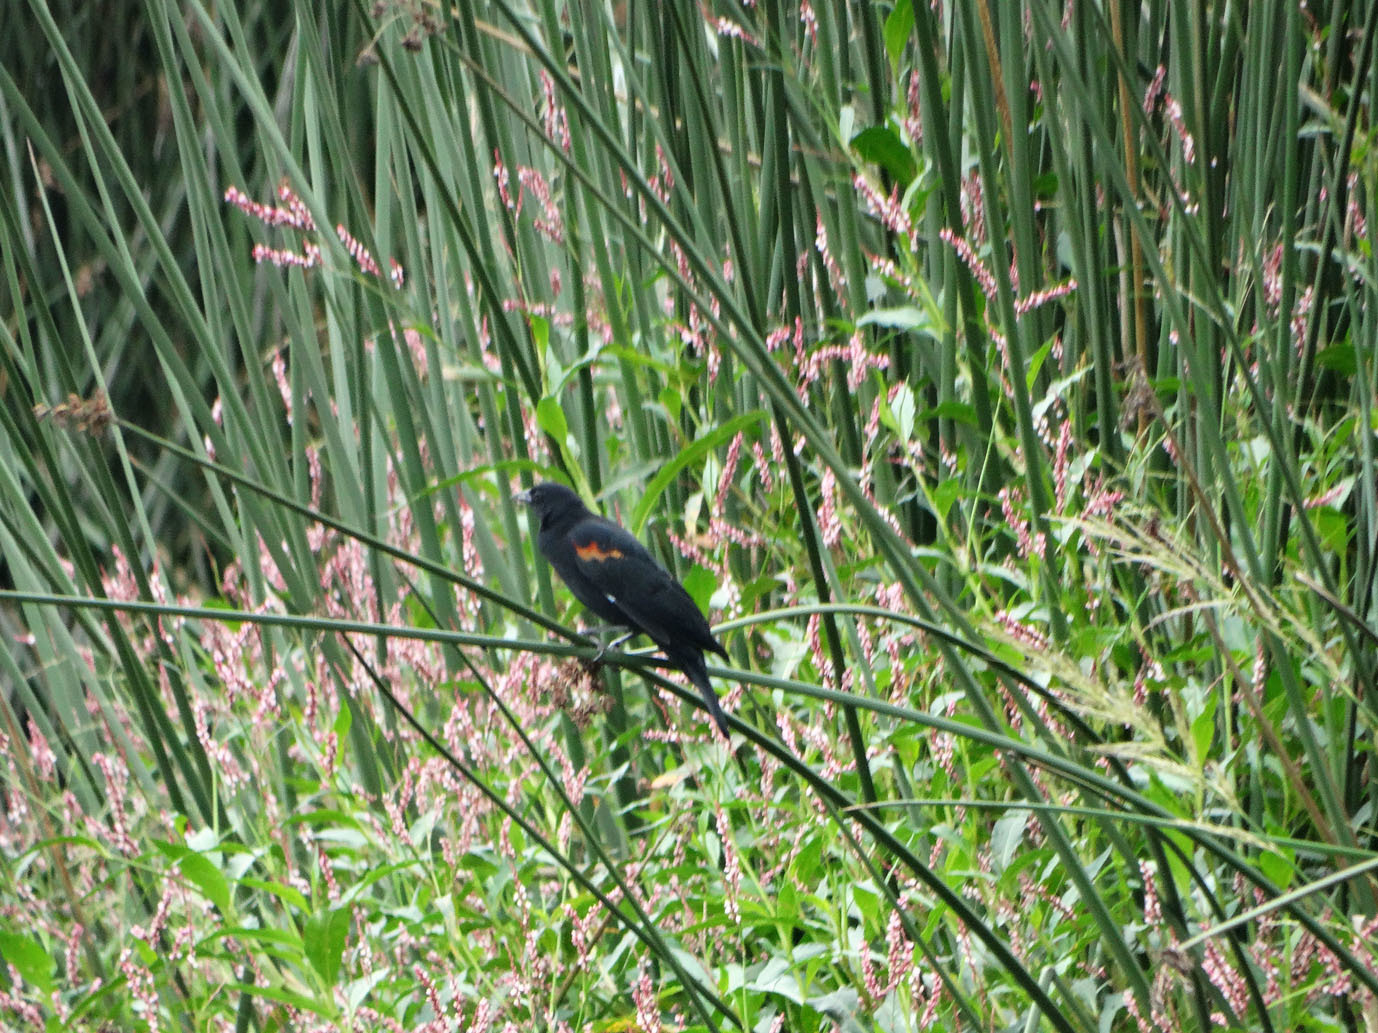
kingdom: Animalia
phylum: Chordata
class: Aves
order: Passeriformes
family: Icteridae
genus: Agelaius
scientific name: Agelaius phoeniceus
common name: Red-winged blackbird
